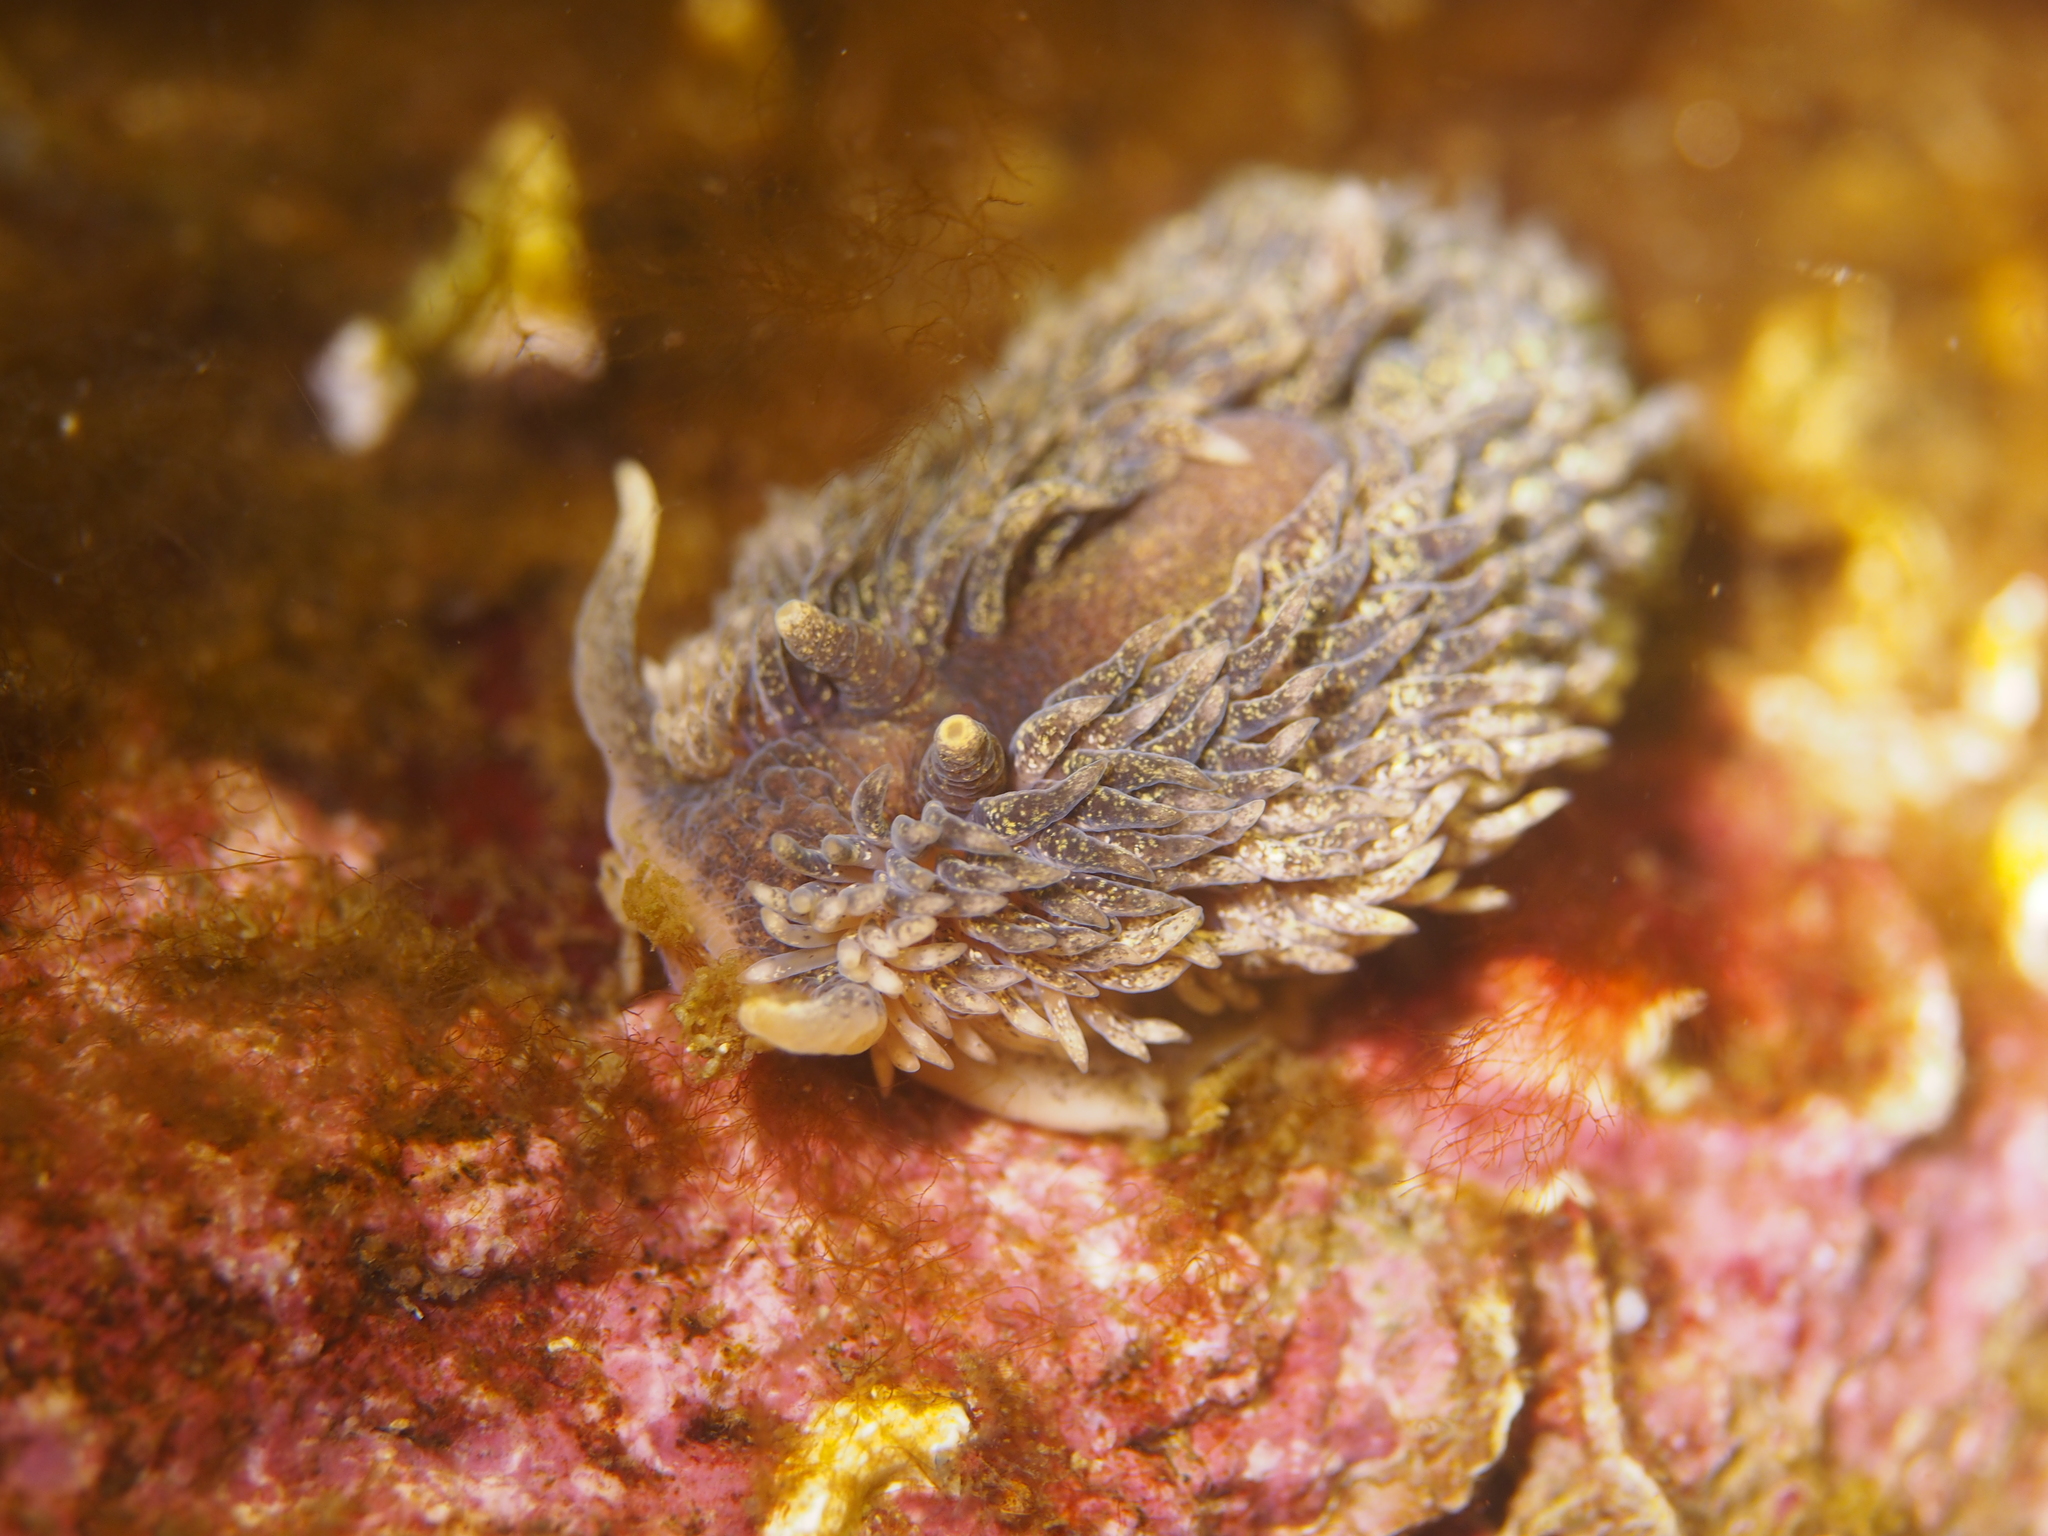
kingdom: Animalia
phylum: Mollusca
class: Gastropoda
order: Nudibranchia
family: Aeolidiidae
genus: Aeolidia
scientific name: Aeolidia papillosa
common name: Common grey sea slug
